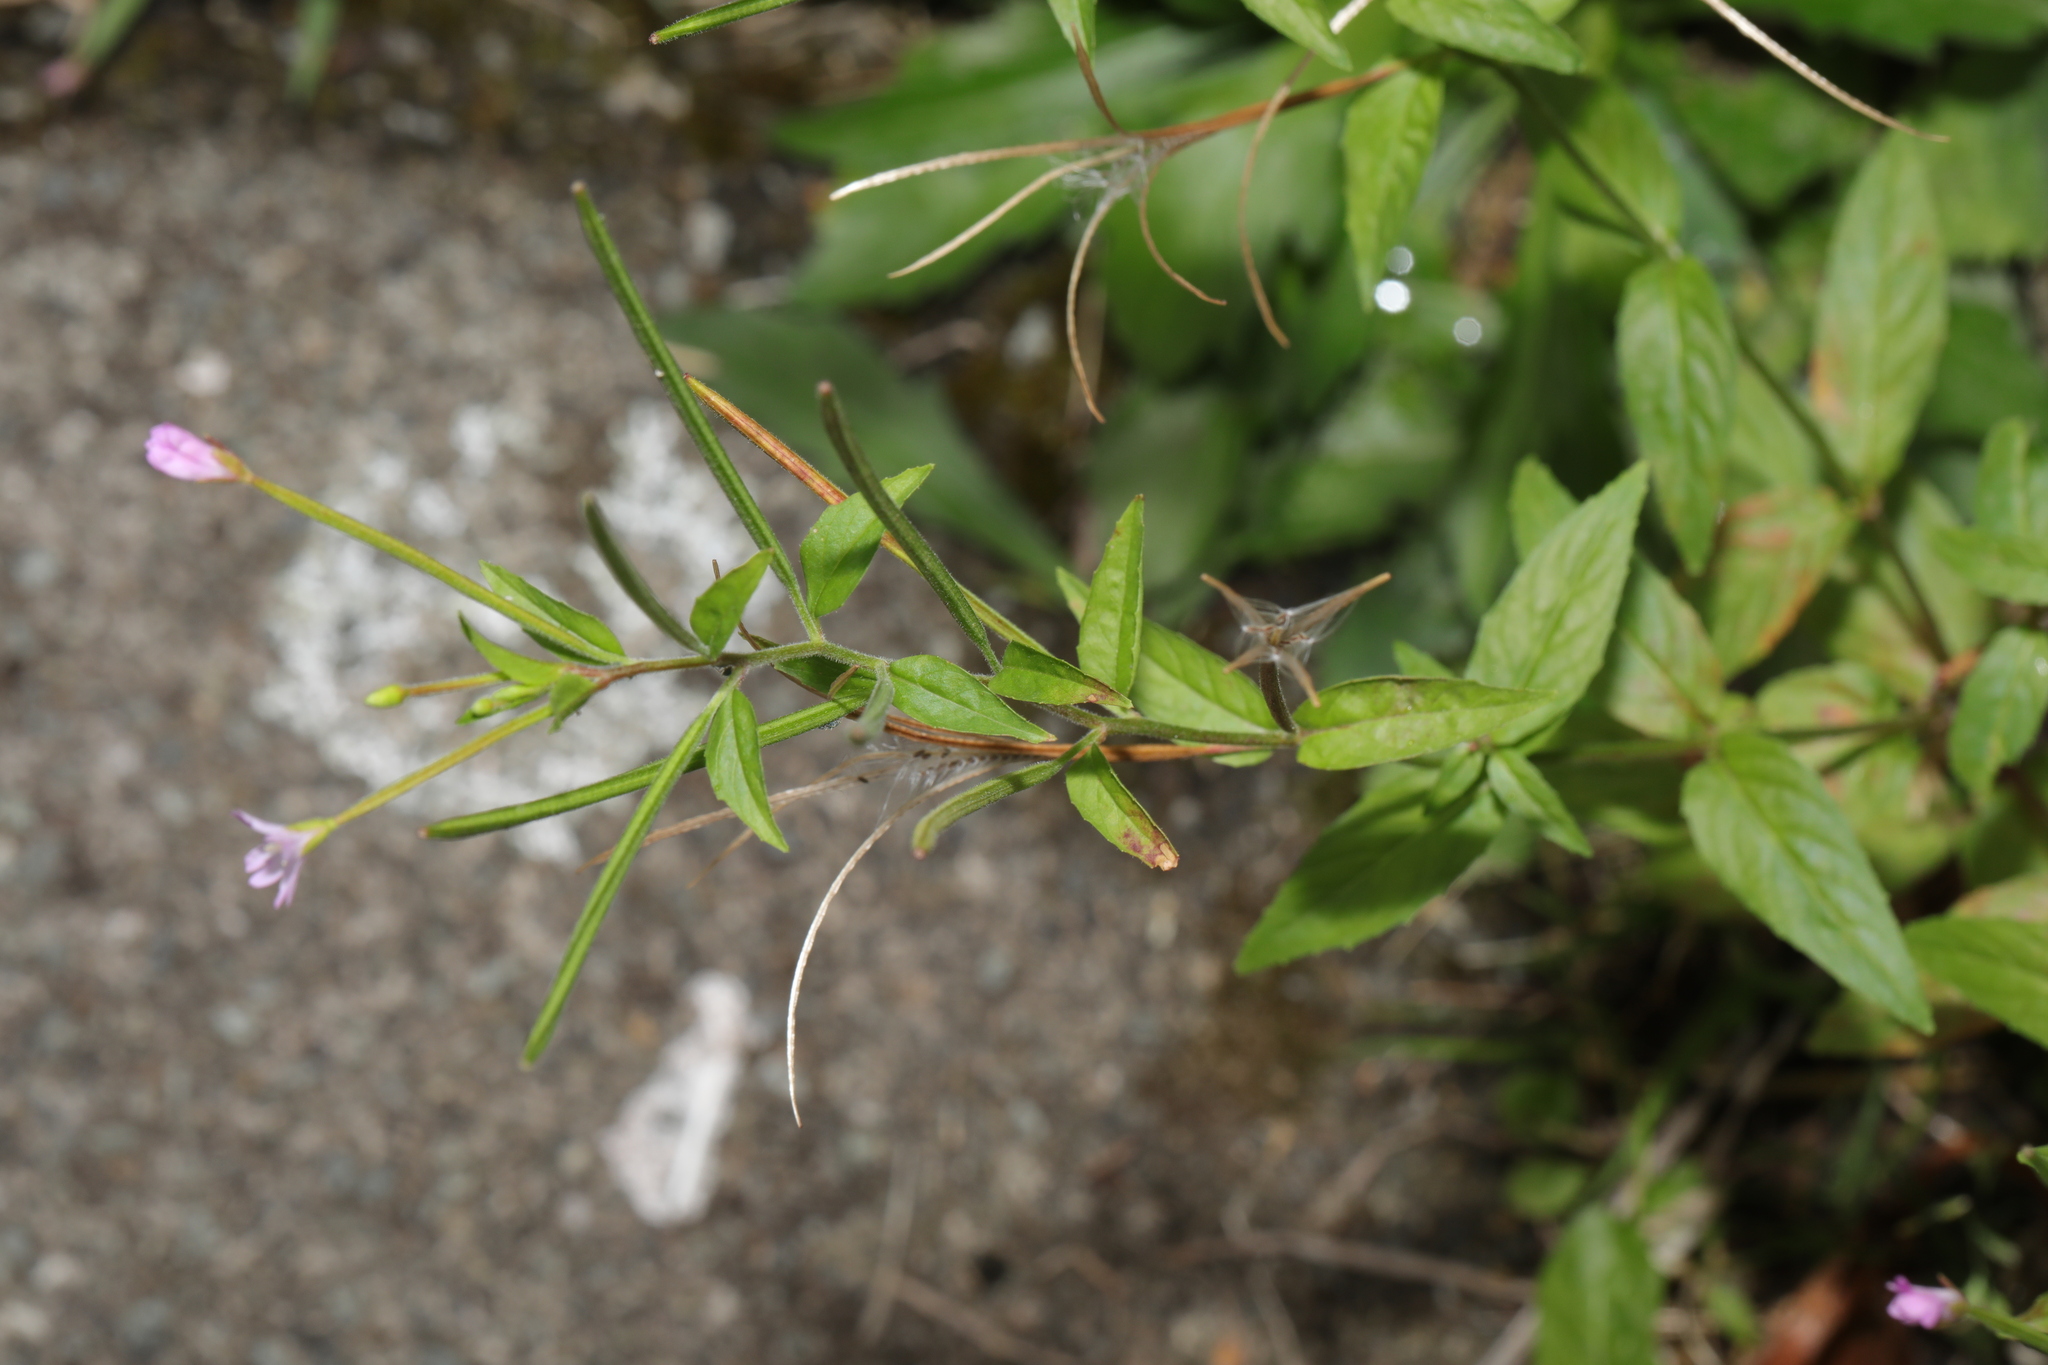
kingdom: Plantae
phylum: Tracheophyta
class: Magnoliopsida
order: Myrtales
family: Onagraceae
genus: Epilobium
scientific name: Epilobium ciliatum
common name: American willowherb
